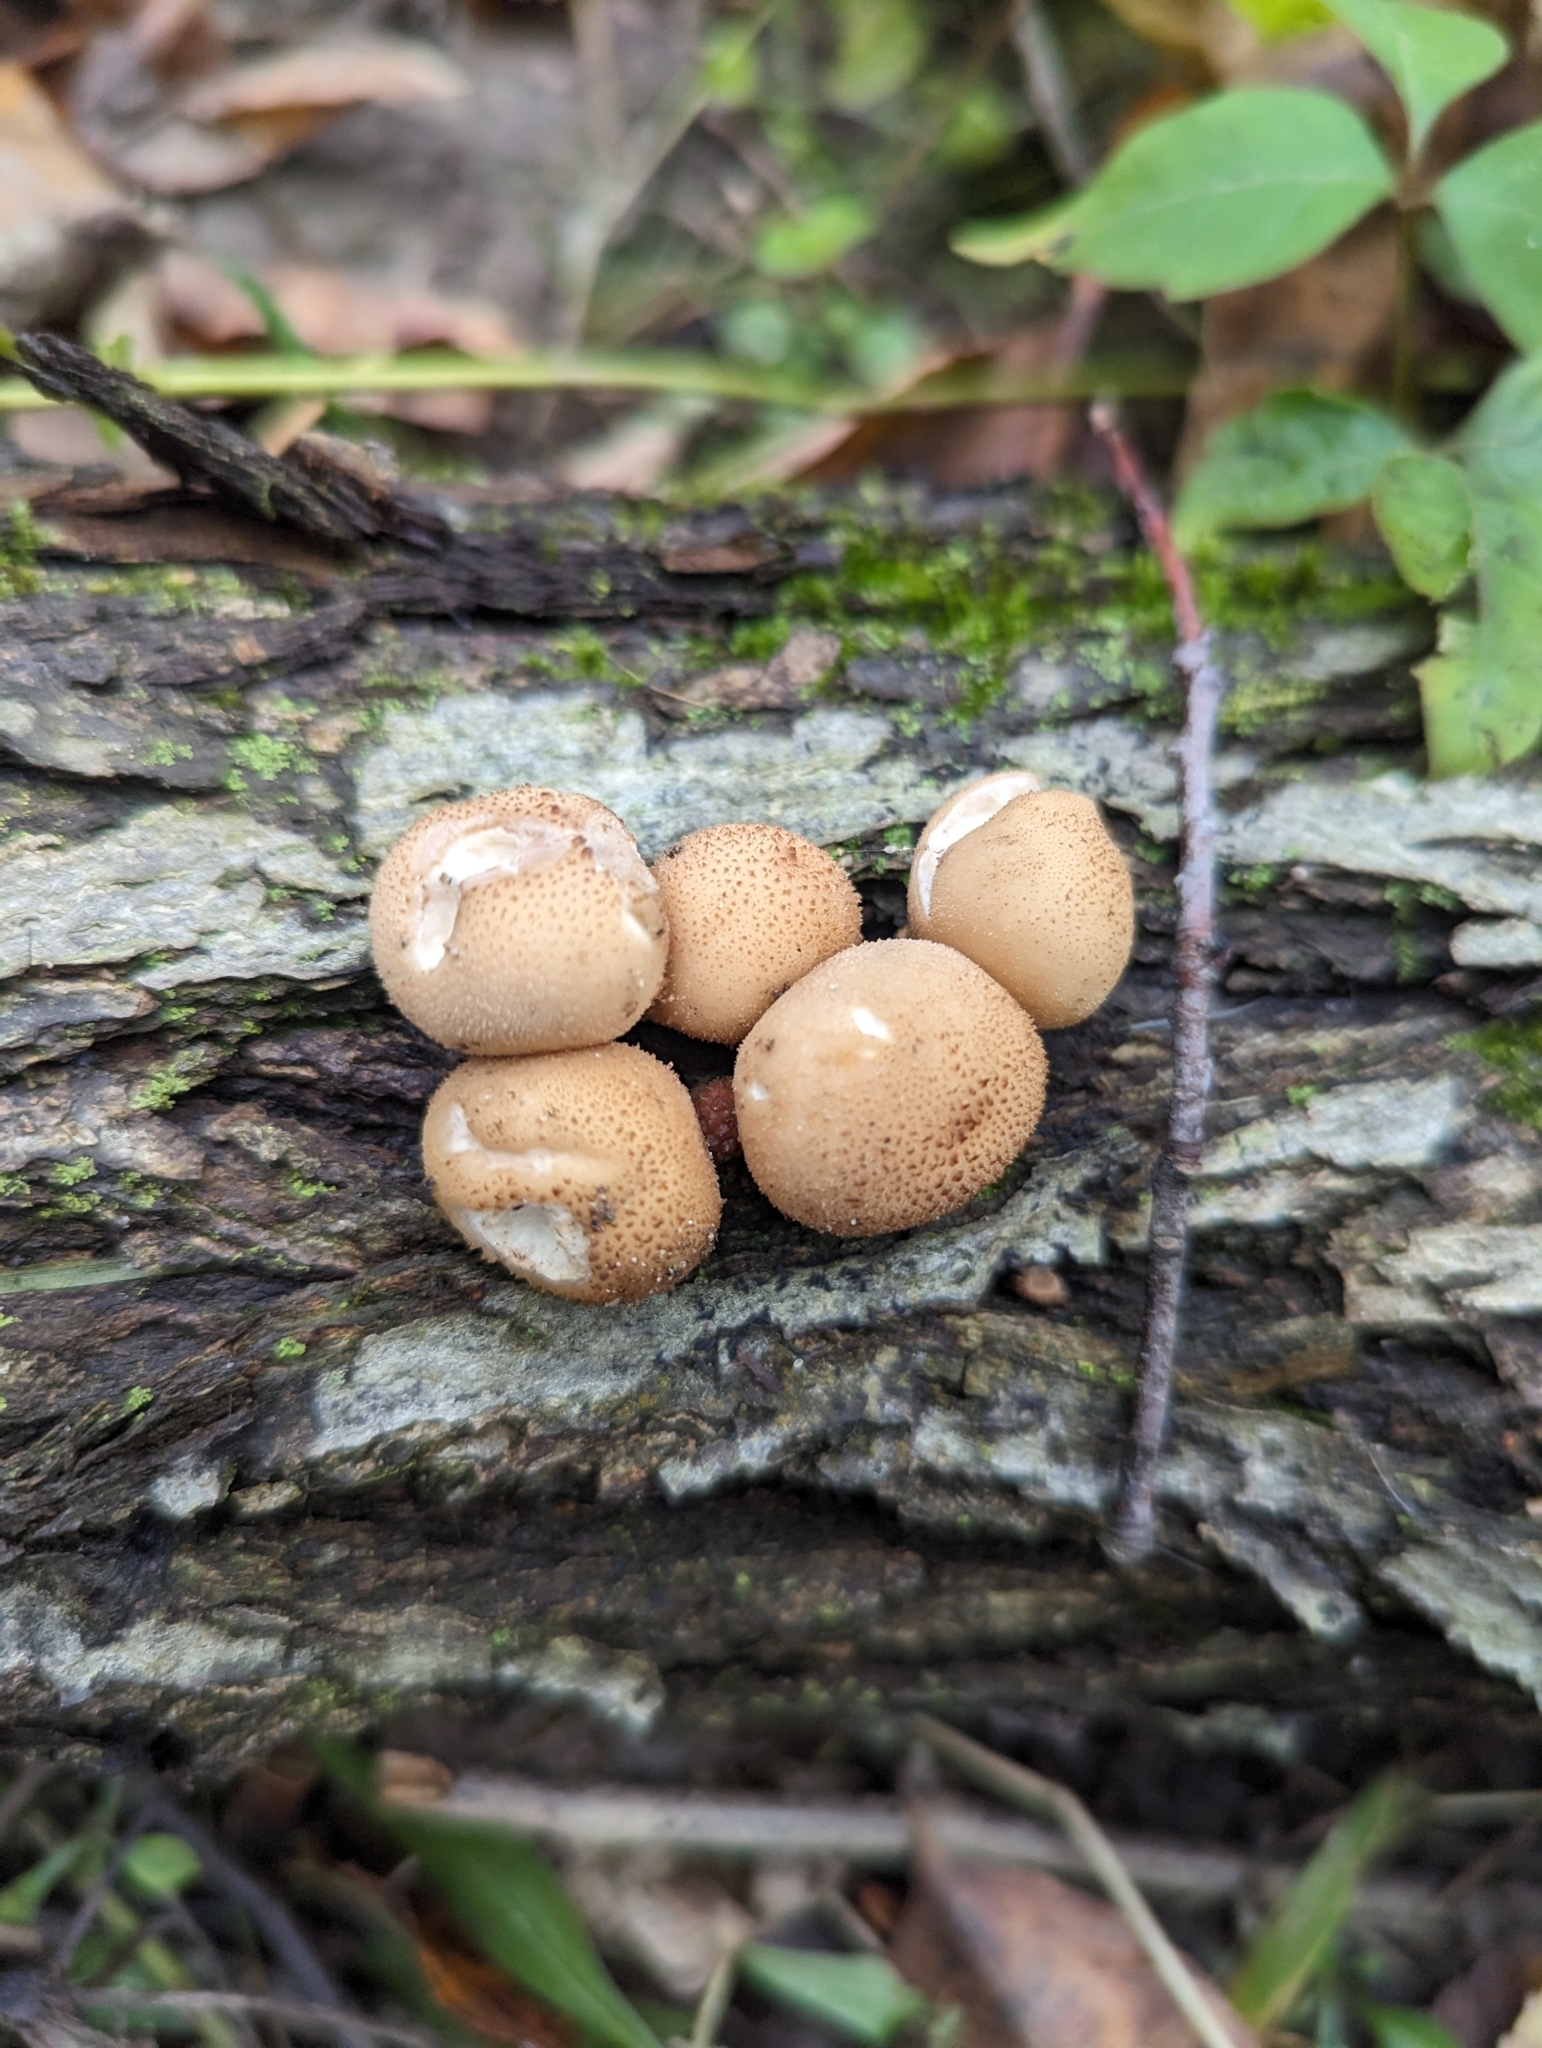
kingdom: Fungi
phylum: Basidiomycota
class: Agaricomycetes
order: Agaricales
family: Lycoperdaceae
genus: Apioperdon
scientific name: Apioperdon pyriforme
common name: Pear-shaped puffball
